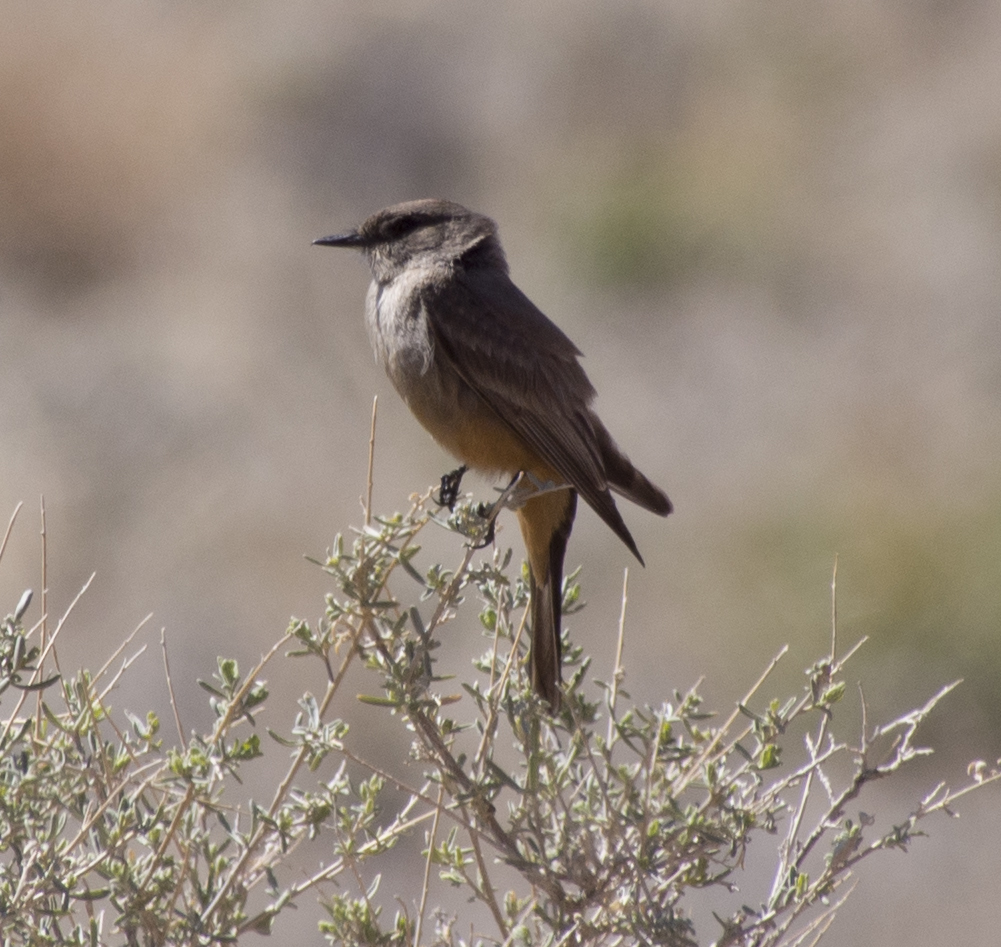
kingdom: Animalia
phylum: Chordata
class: Aves
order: Passeriformes
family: Tyrannidae
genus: Sayornis
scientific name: Sayornis saya
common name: Say's phoebe
